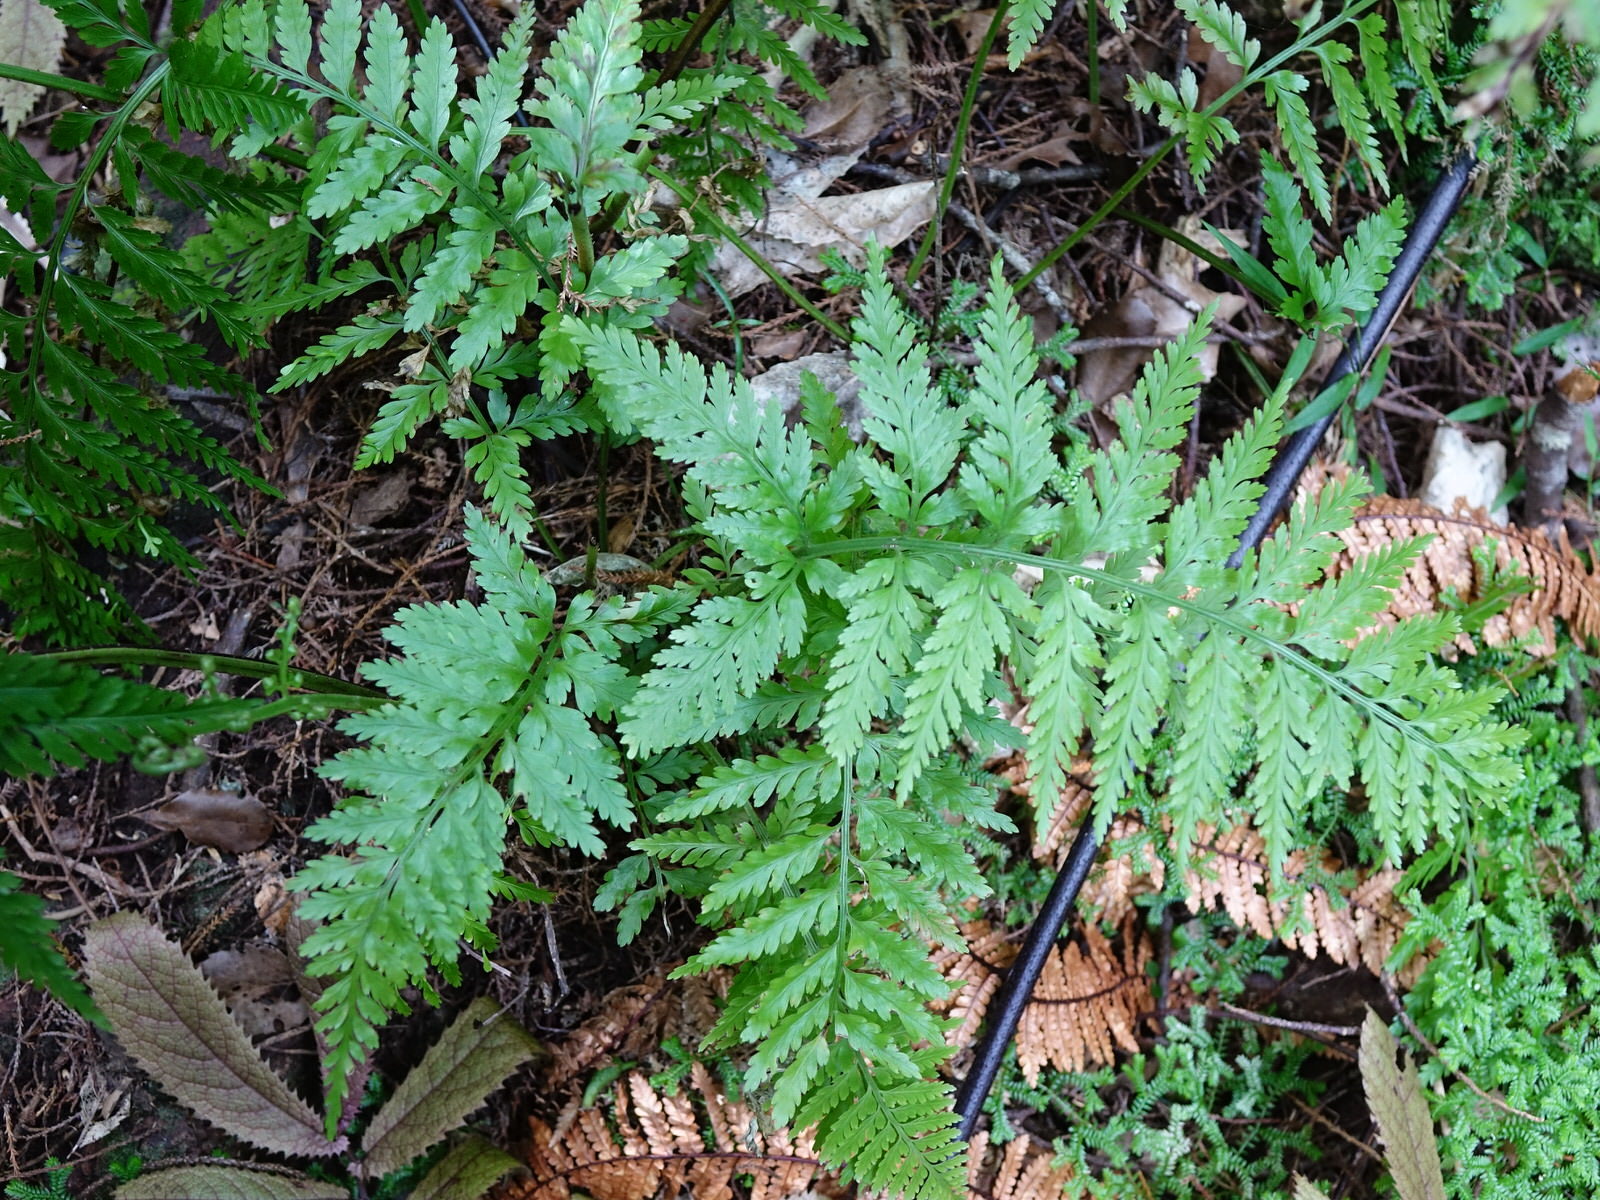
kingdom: Plantae
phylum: Tracheophyta
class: Polypodiopsida
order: Polypodiales
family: Aspleniaceae
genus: Asplenium
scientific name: Asplenium bulbiferum
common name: Mother fern
